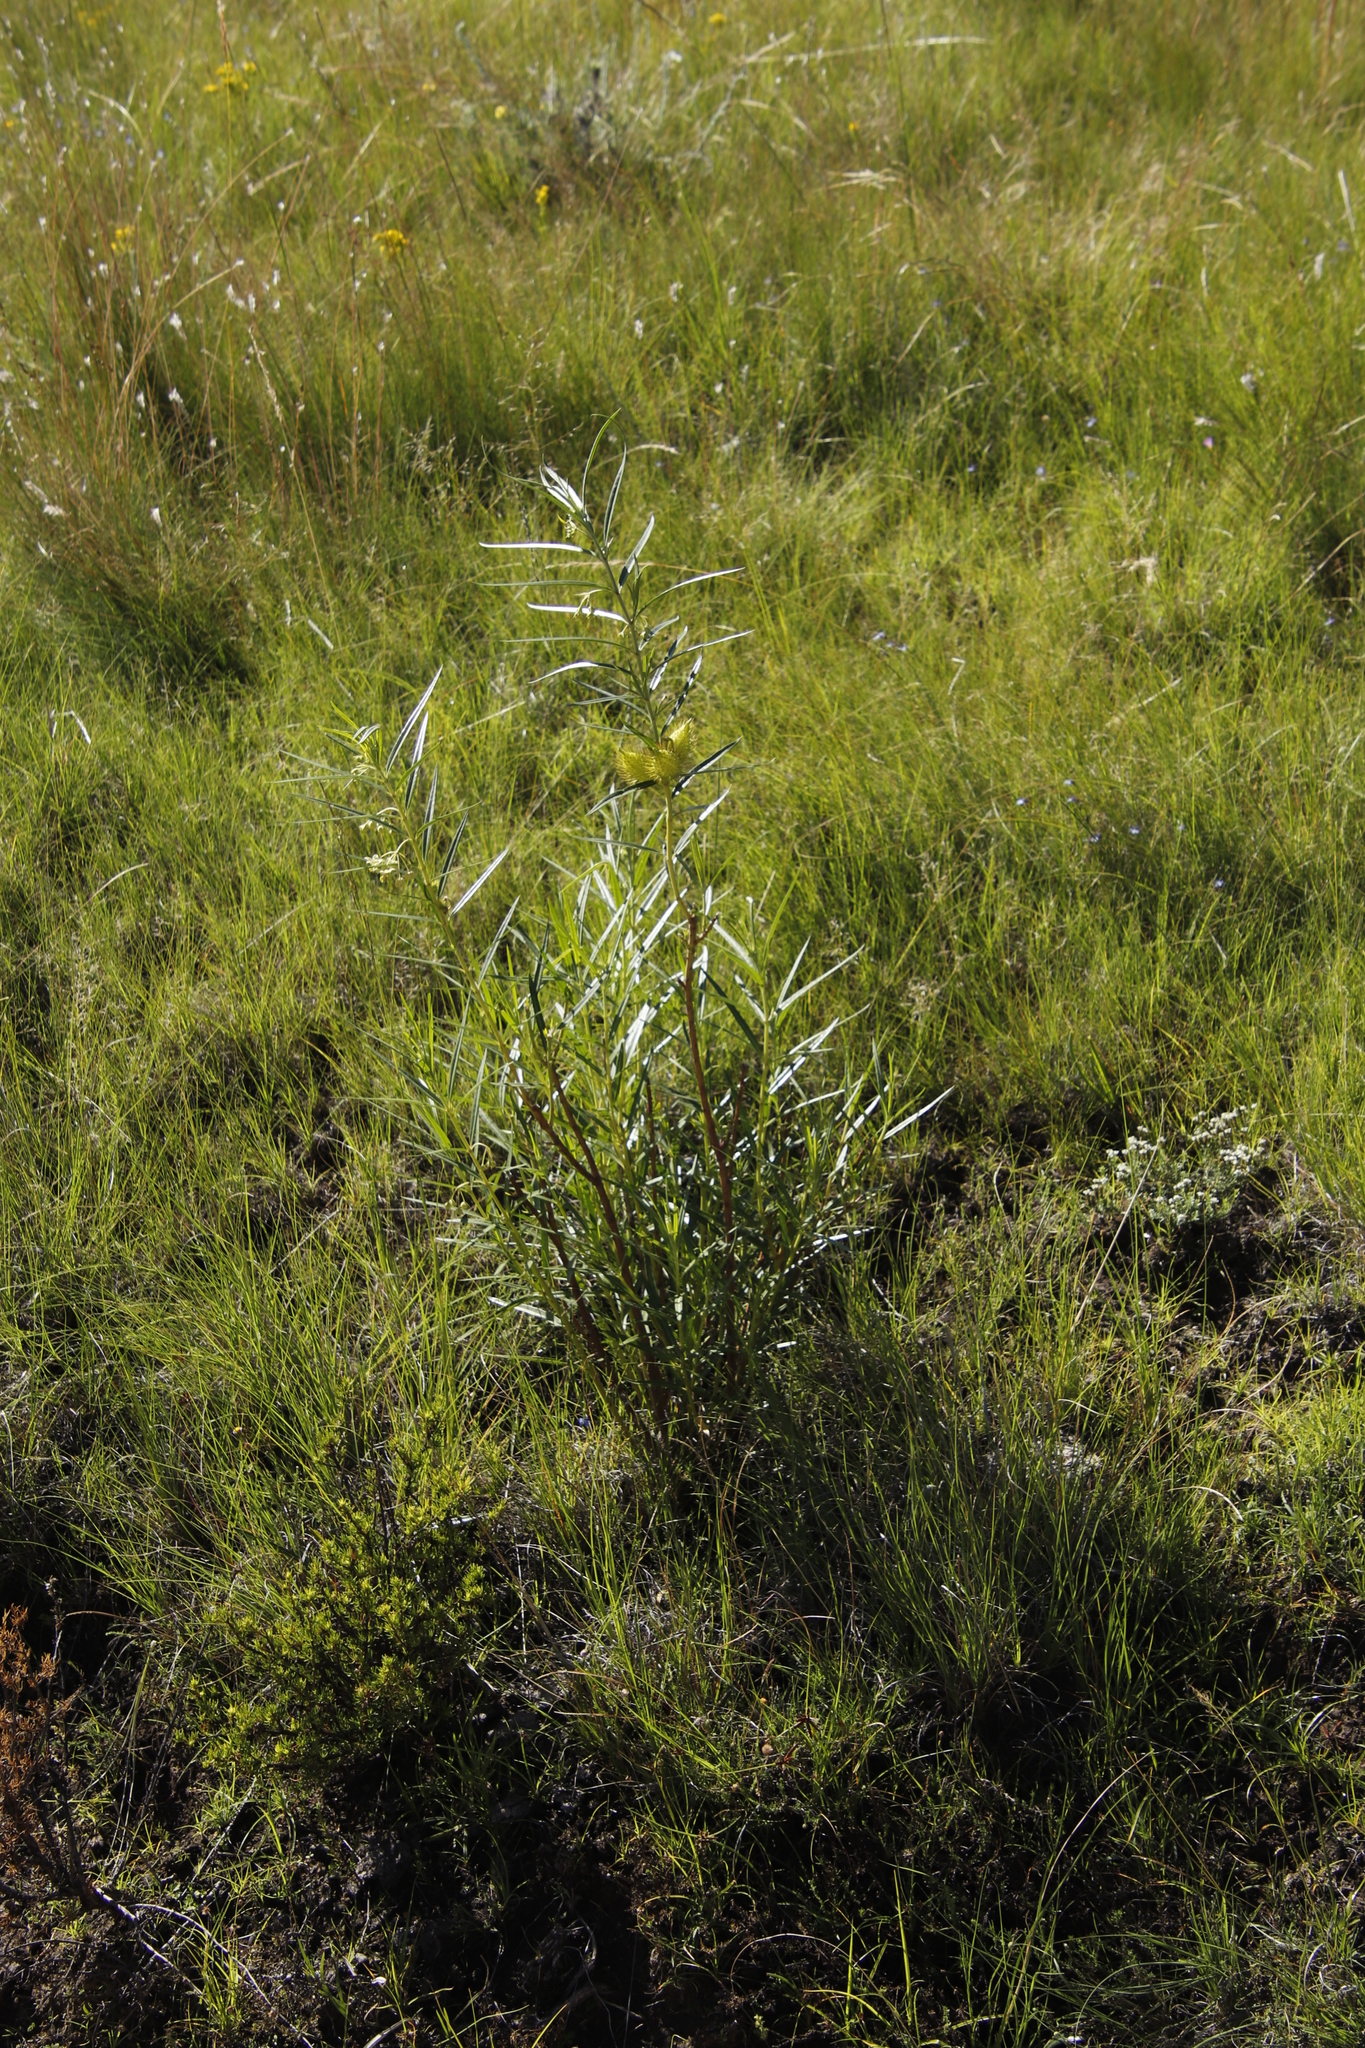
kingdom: Plantae
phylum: Tracheophyta
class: Magnoliopsida
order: Gentianales
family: Apocynaceae
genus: Gomphocarpus
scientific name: Gomphocarpus fruticosus
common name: Milkweed
